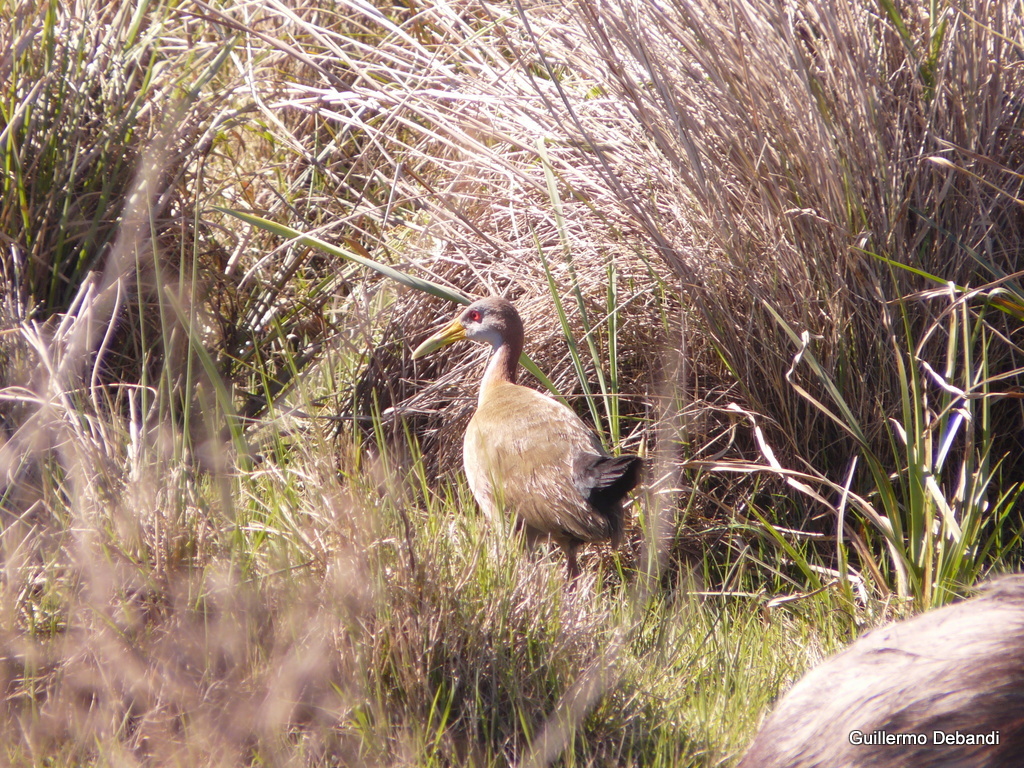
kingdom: Animalia
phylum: Chordata
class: Aves
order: Gruiformes
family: Rallidae
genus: Aramides
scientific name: Aramides ypecaha
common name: Giant wood rail
